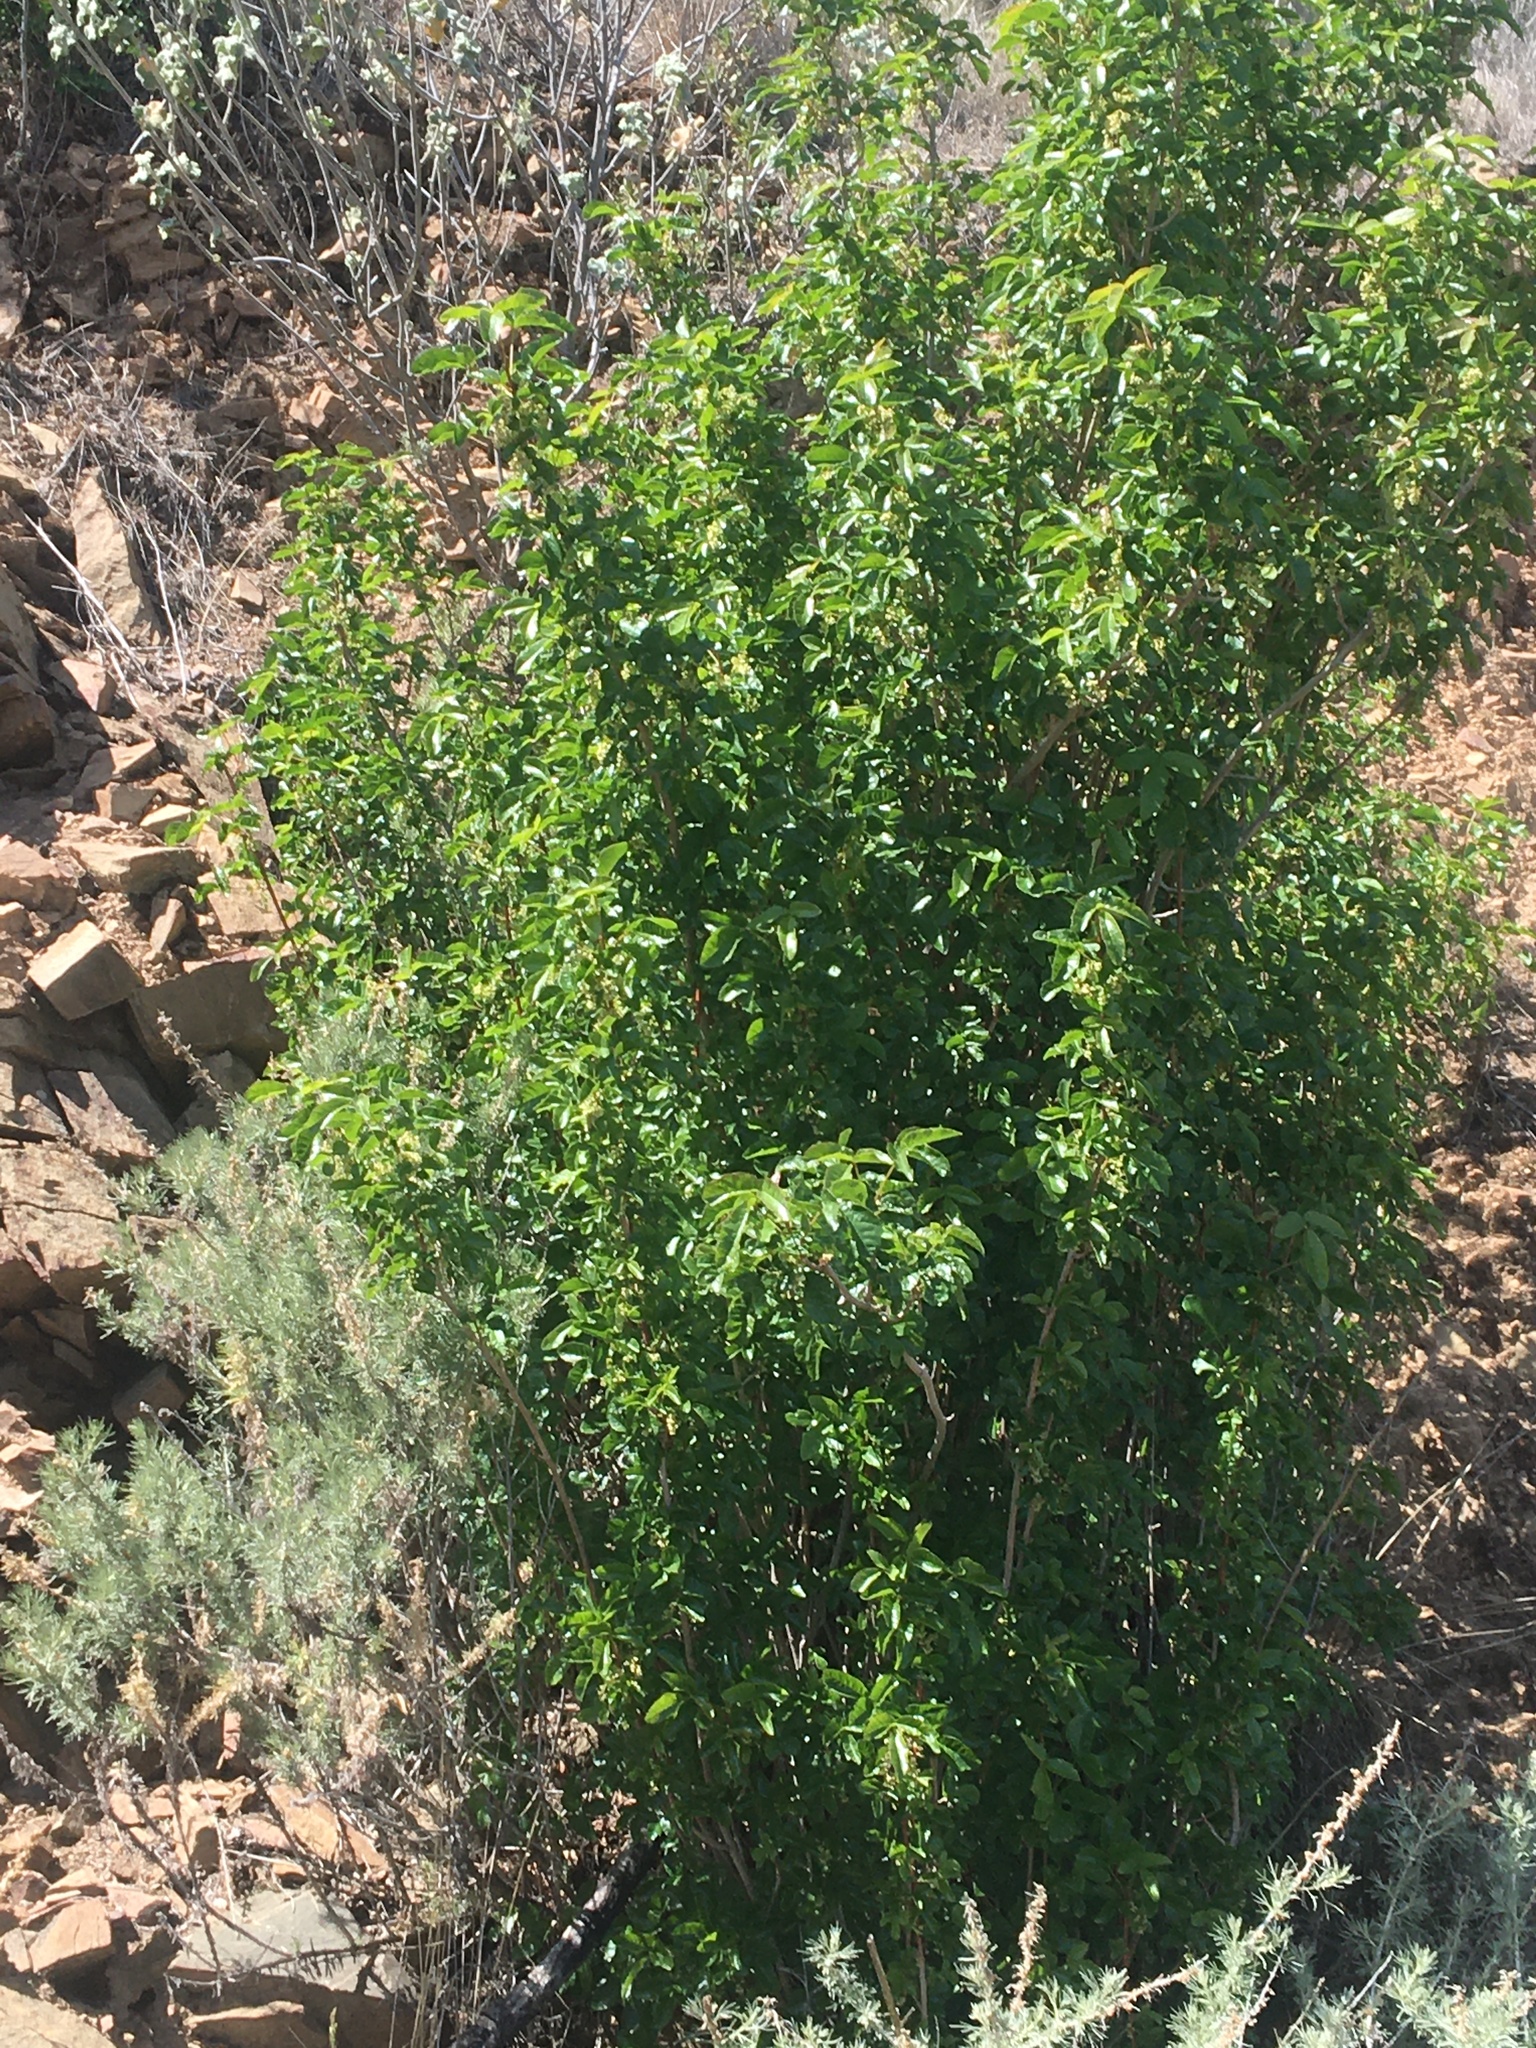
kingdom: Plantae
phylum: Tracheophyta
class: Magnoliopsida
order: Sapindales
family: Anacardiaceae
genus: Toxicodendron
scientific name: Toxicodendron diversilobum
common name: Pacific poison-oak
